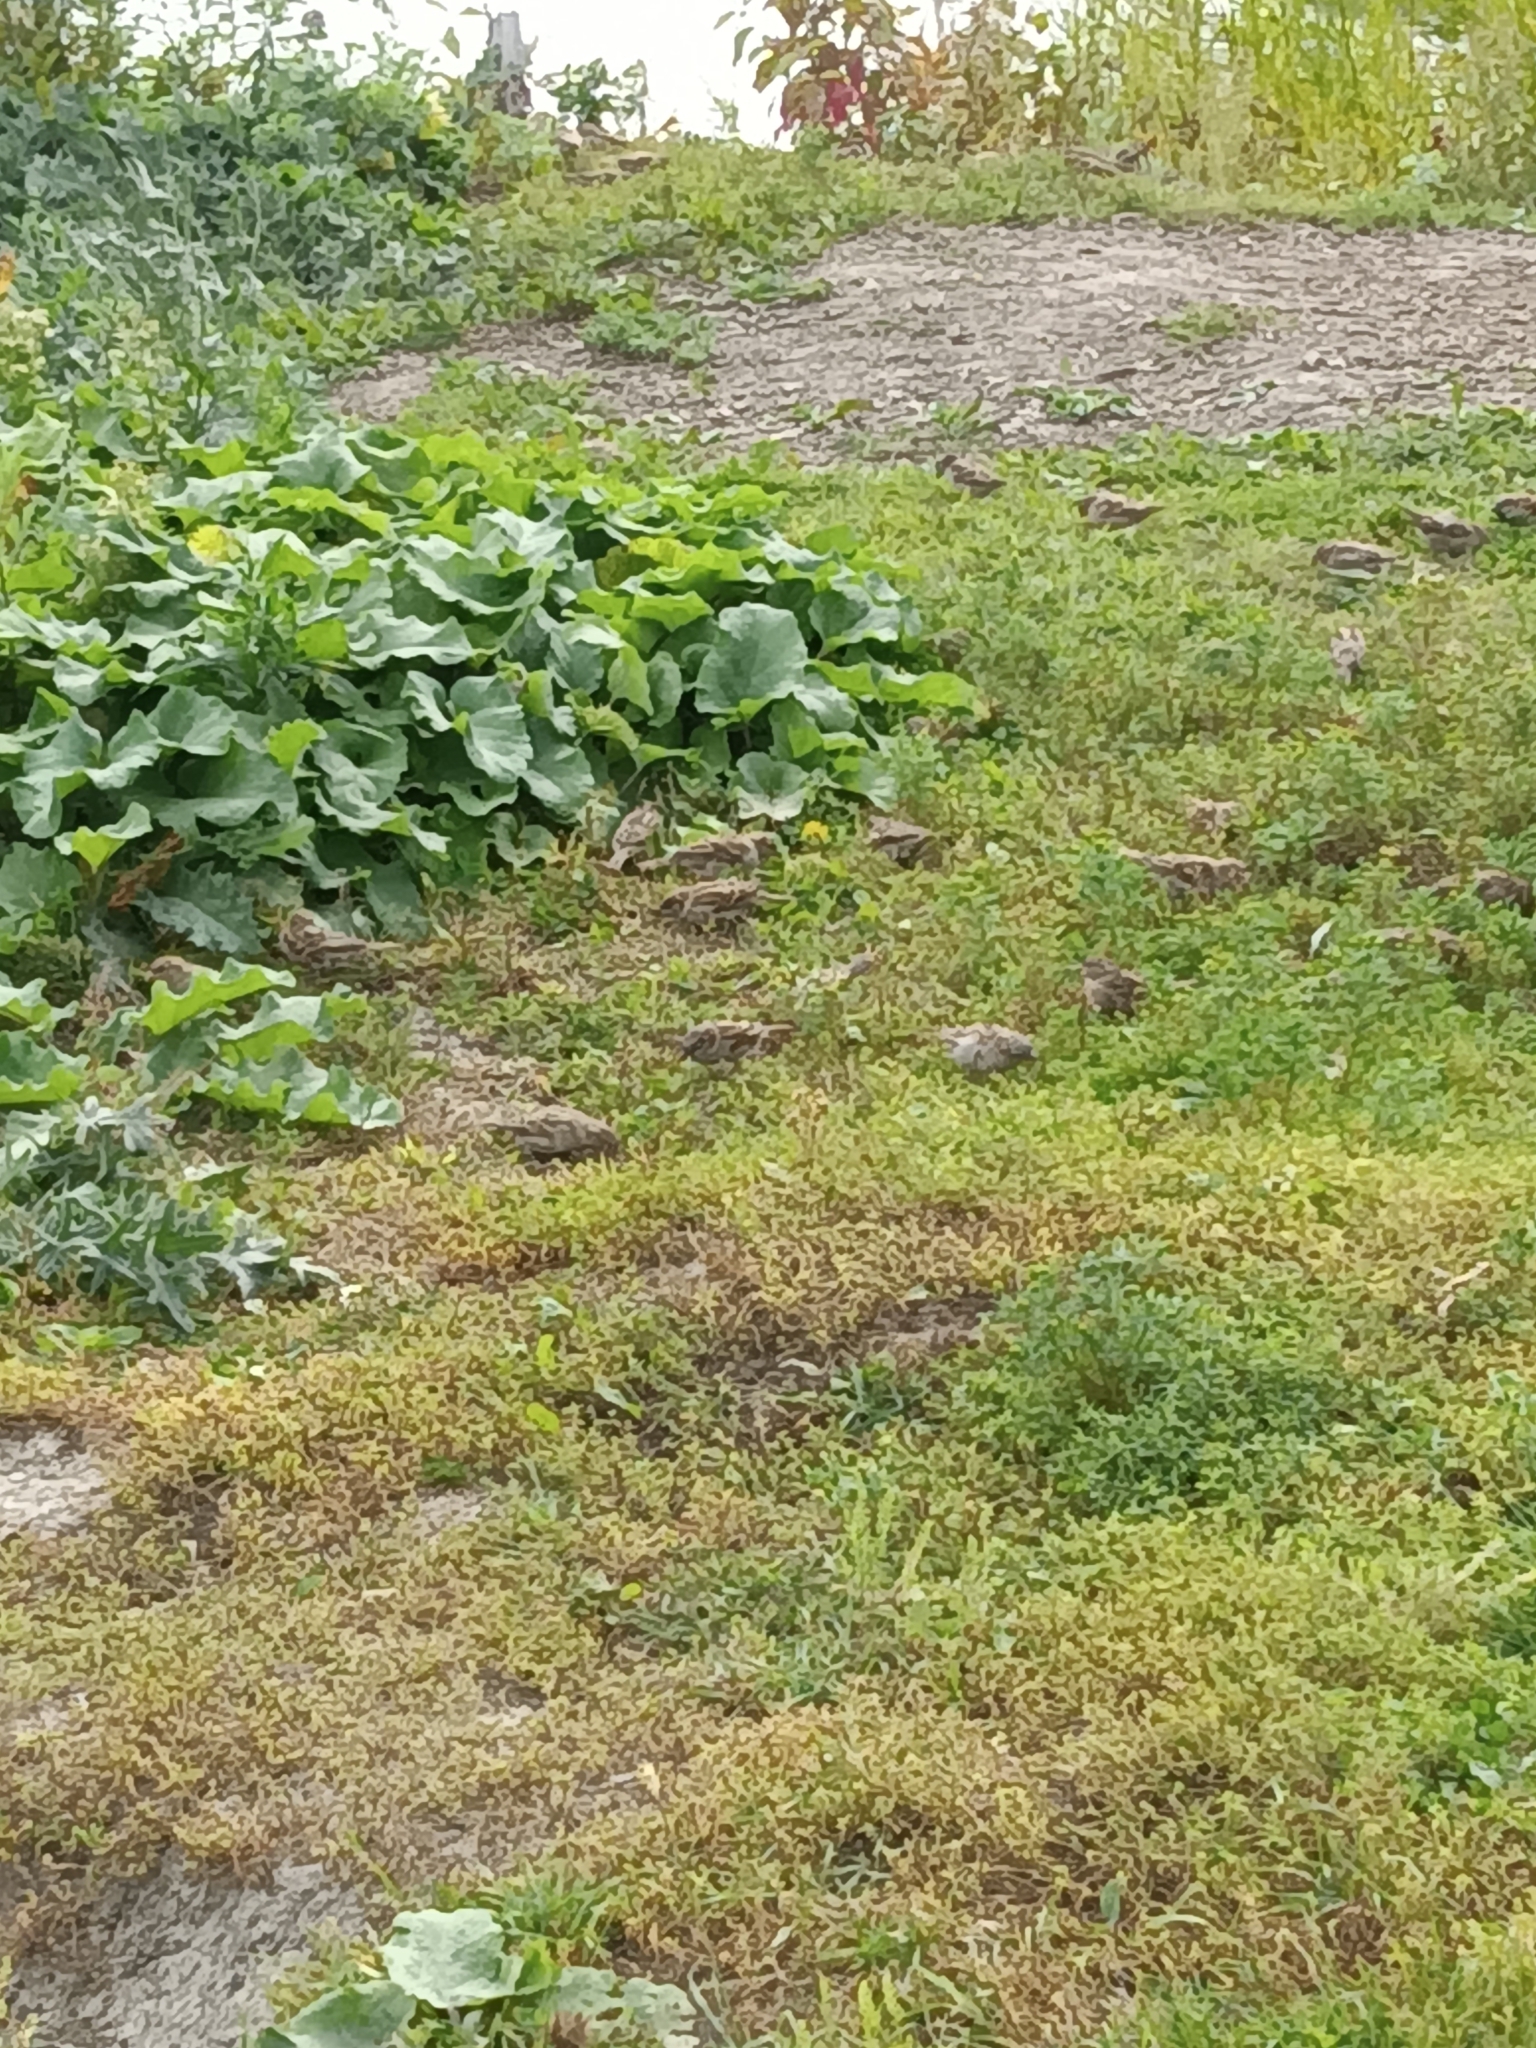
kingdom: Animalia
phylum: Chordata
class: Aves
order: Passeriformes
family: Passeridae
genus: Passer
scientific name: Passer domesticus
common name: House sparrow
